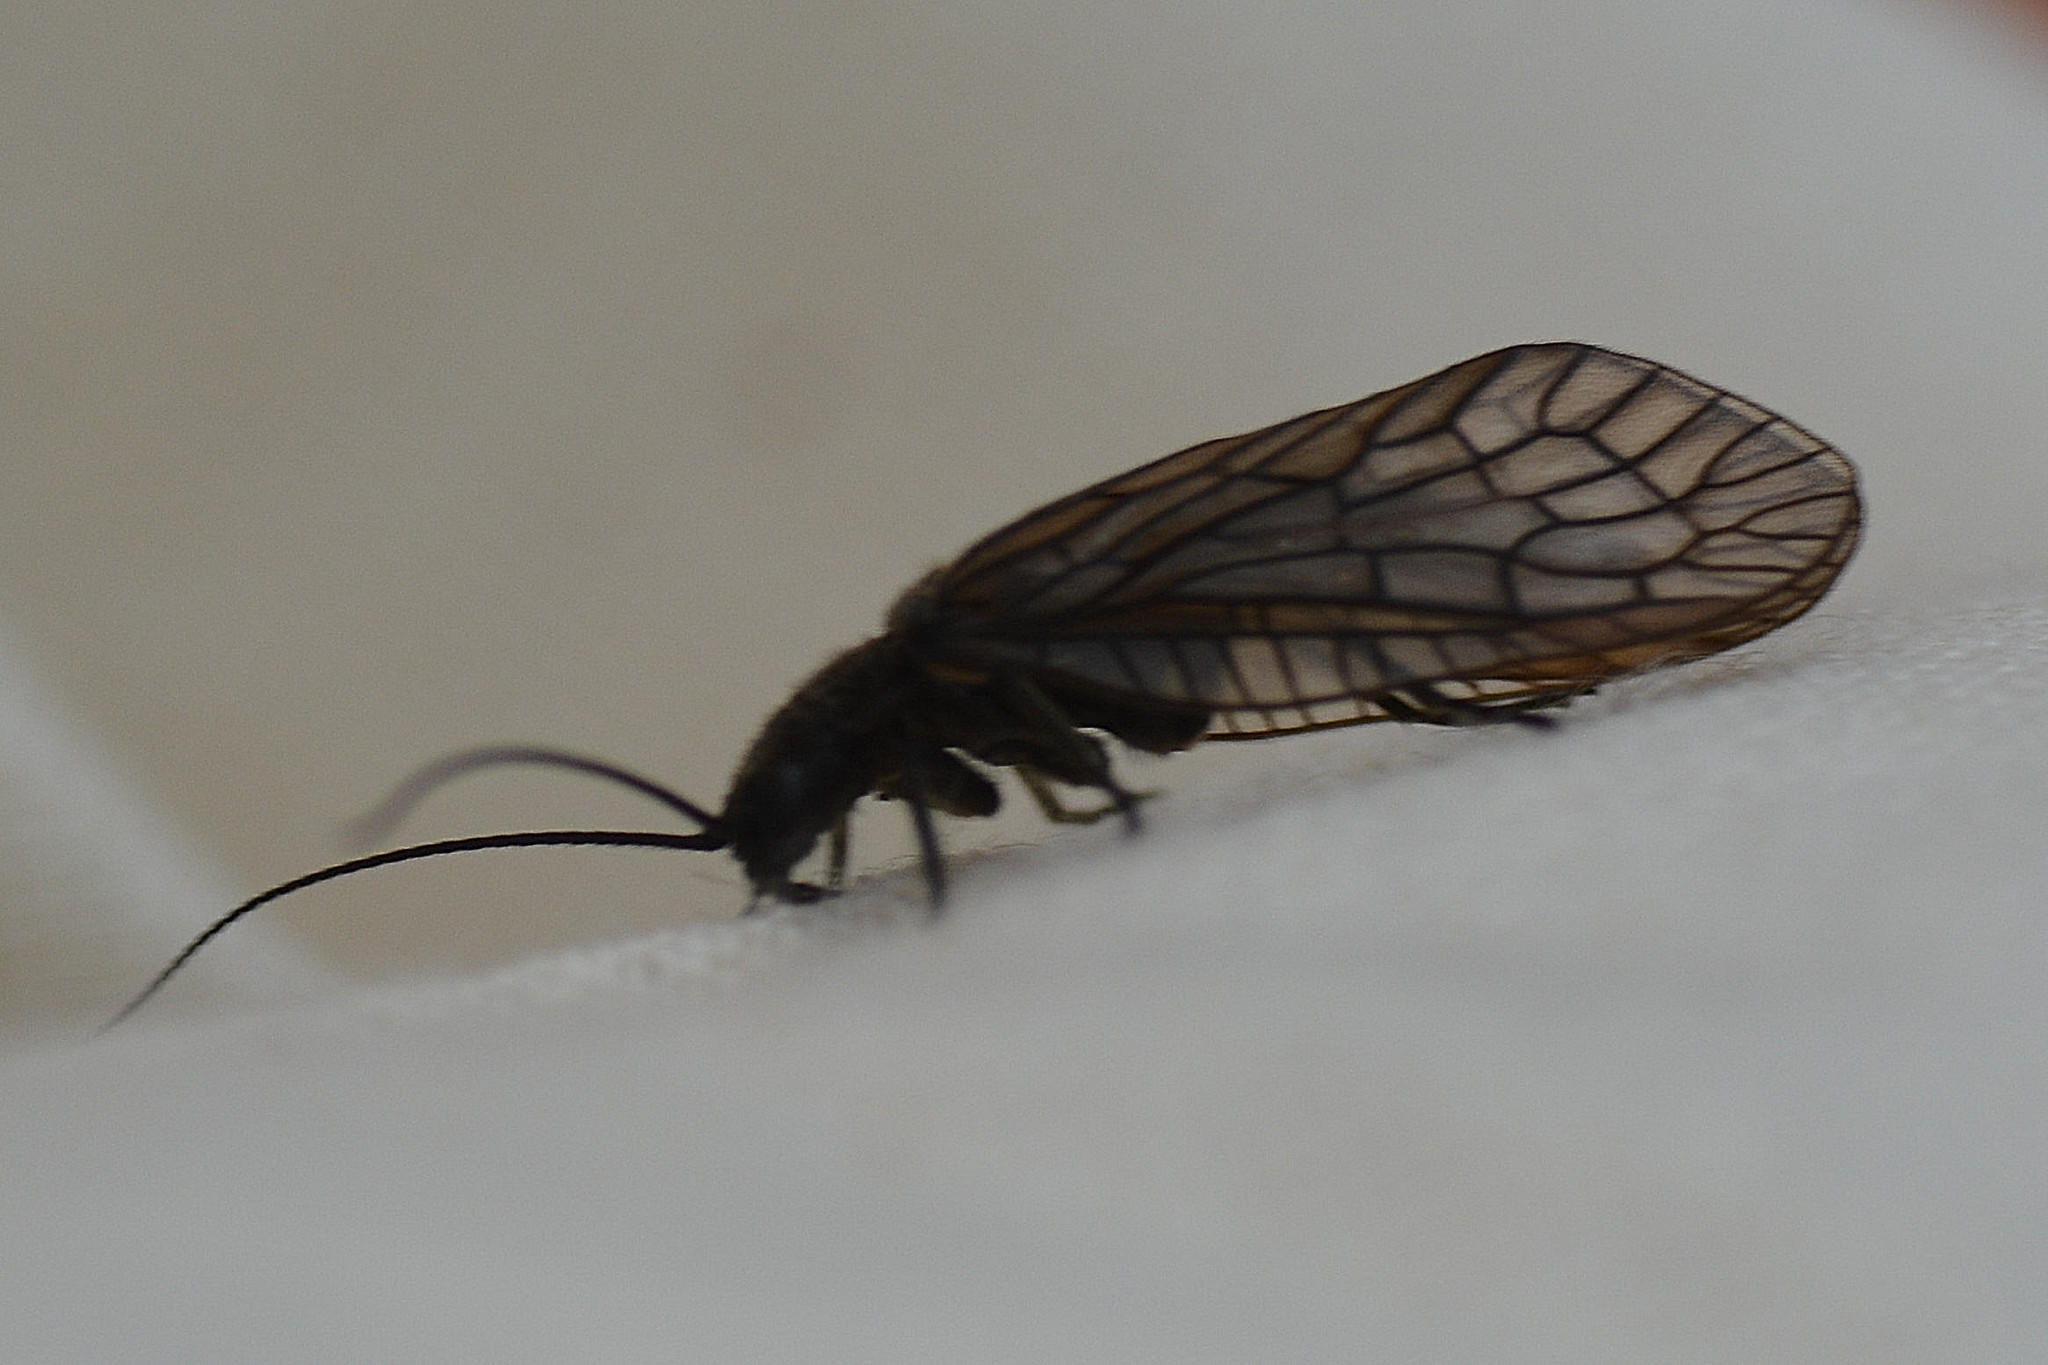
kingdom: Animalia
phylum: Arthropoda
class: Insecta
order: Megaloptera
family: Sialidae
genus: Sialis
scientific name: Sialis
